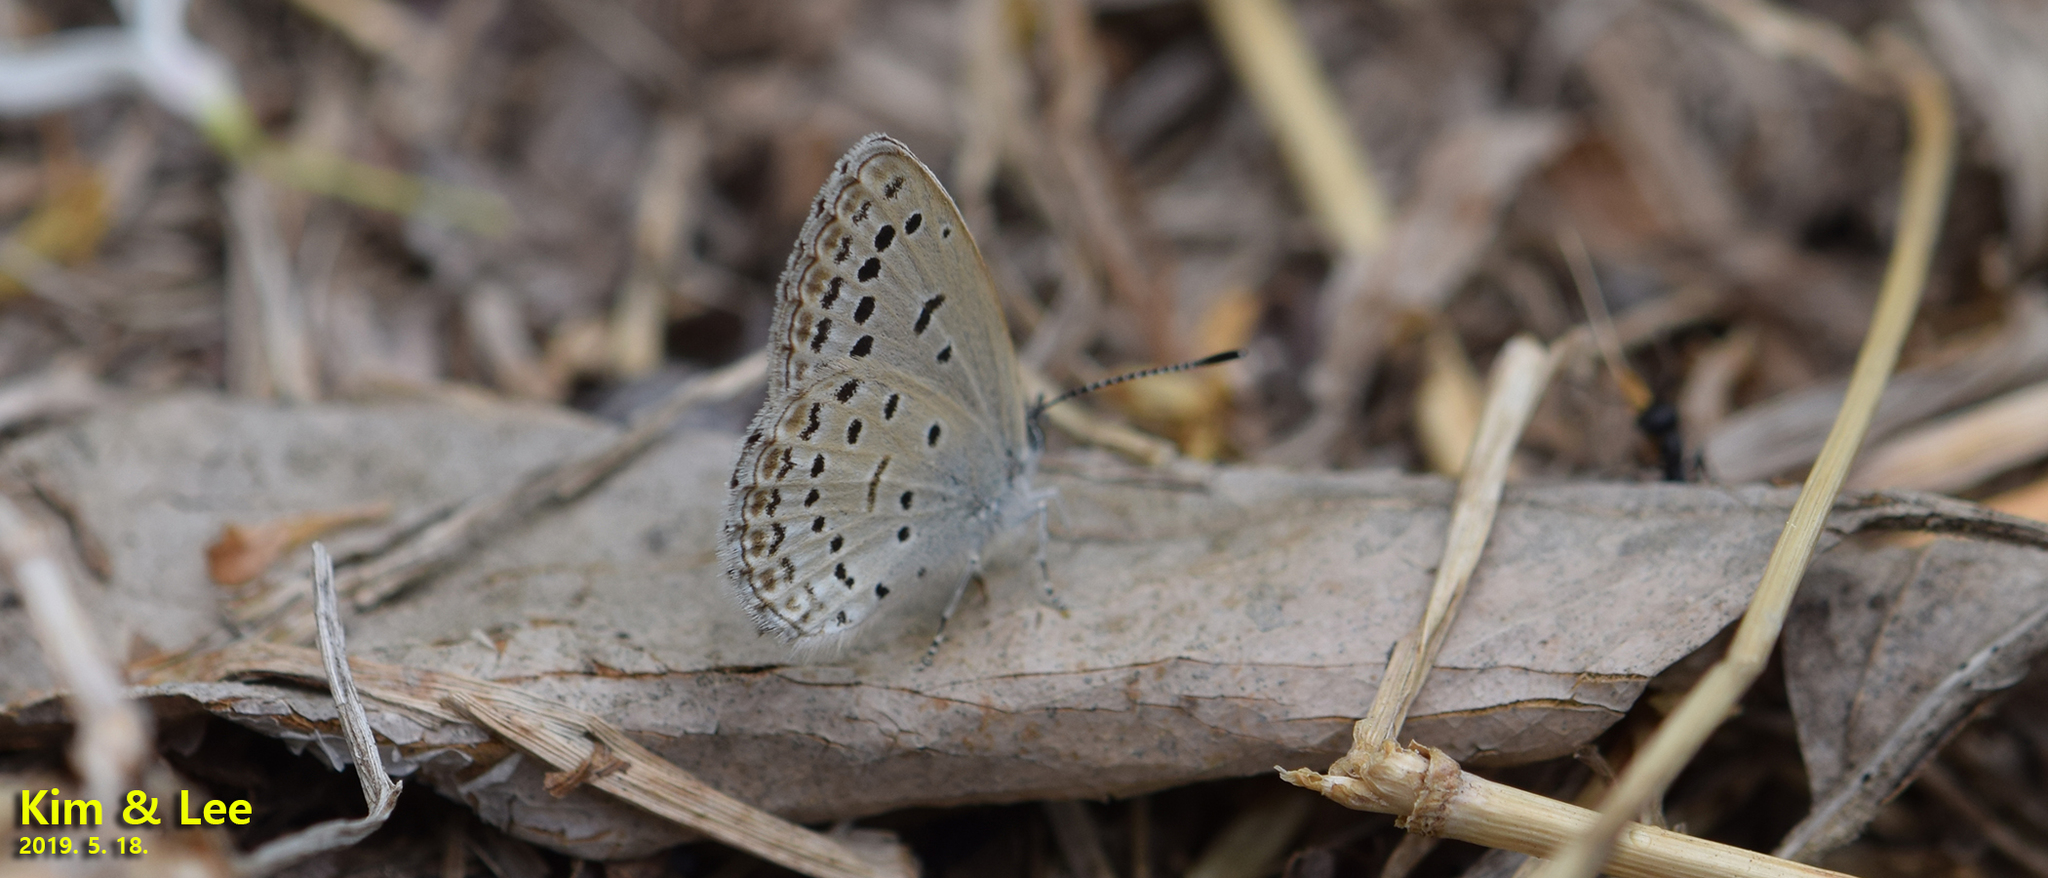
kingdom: Animalia
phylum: Arthropoda
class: Insecta
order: Lepidoptera
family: Lycaenidae
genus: Pseudozizeeria
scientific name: Pseudozizeeria maha
